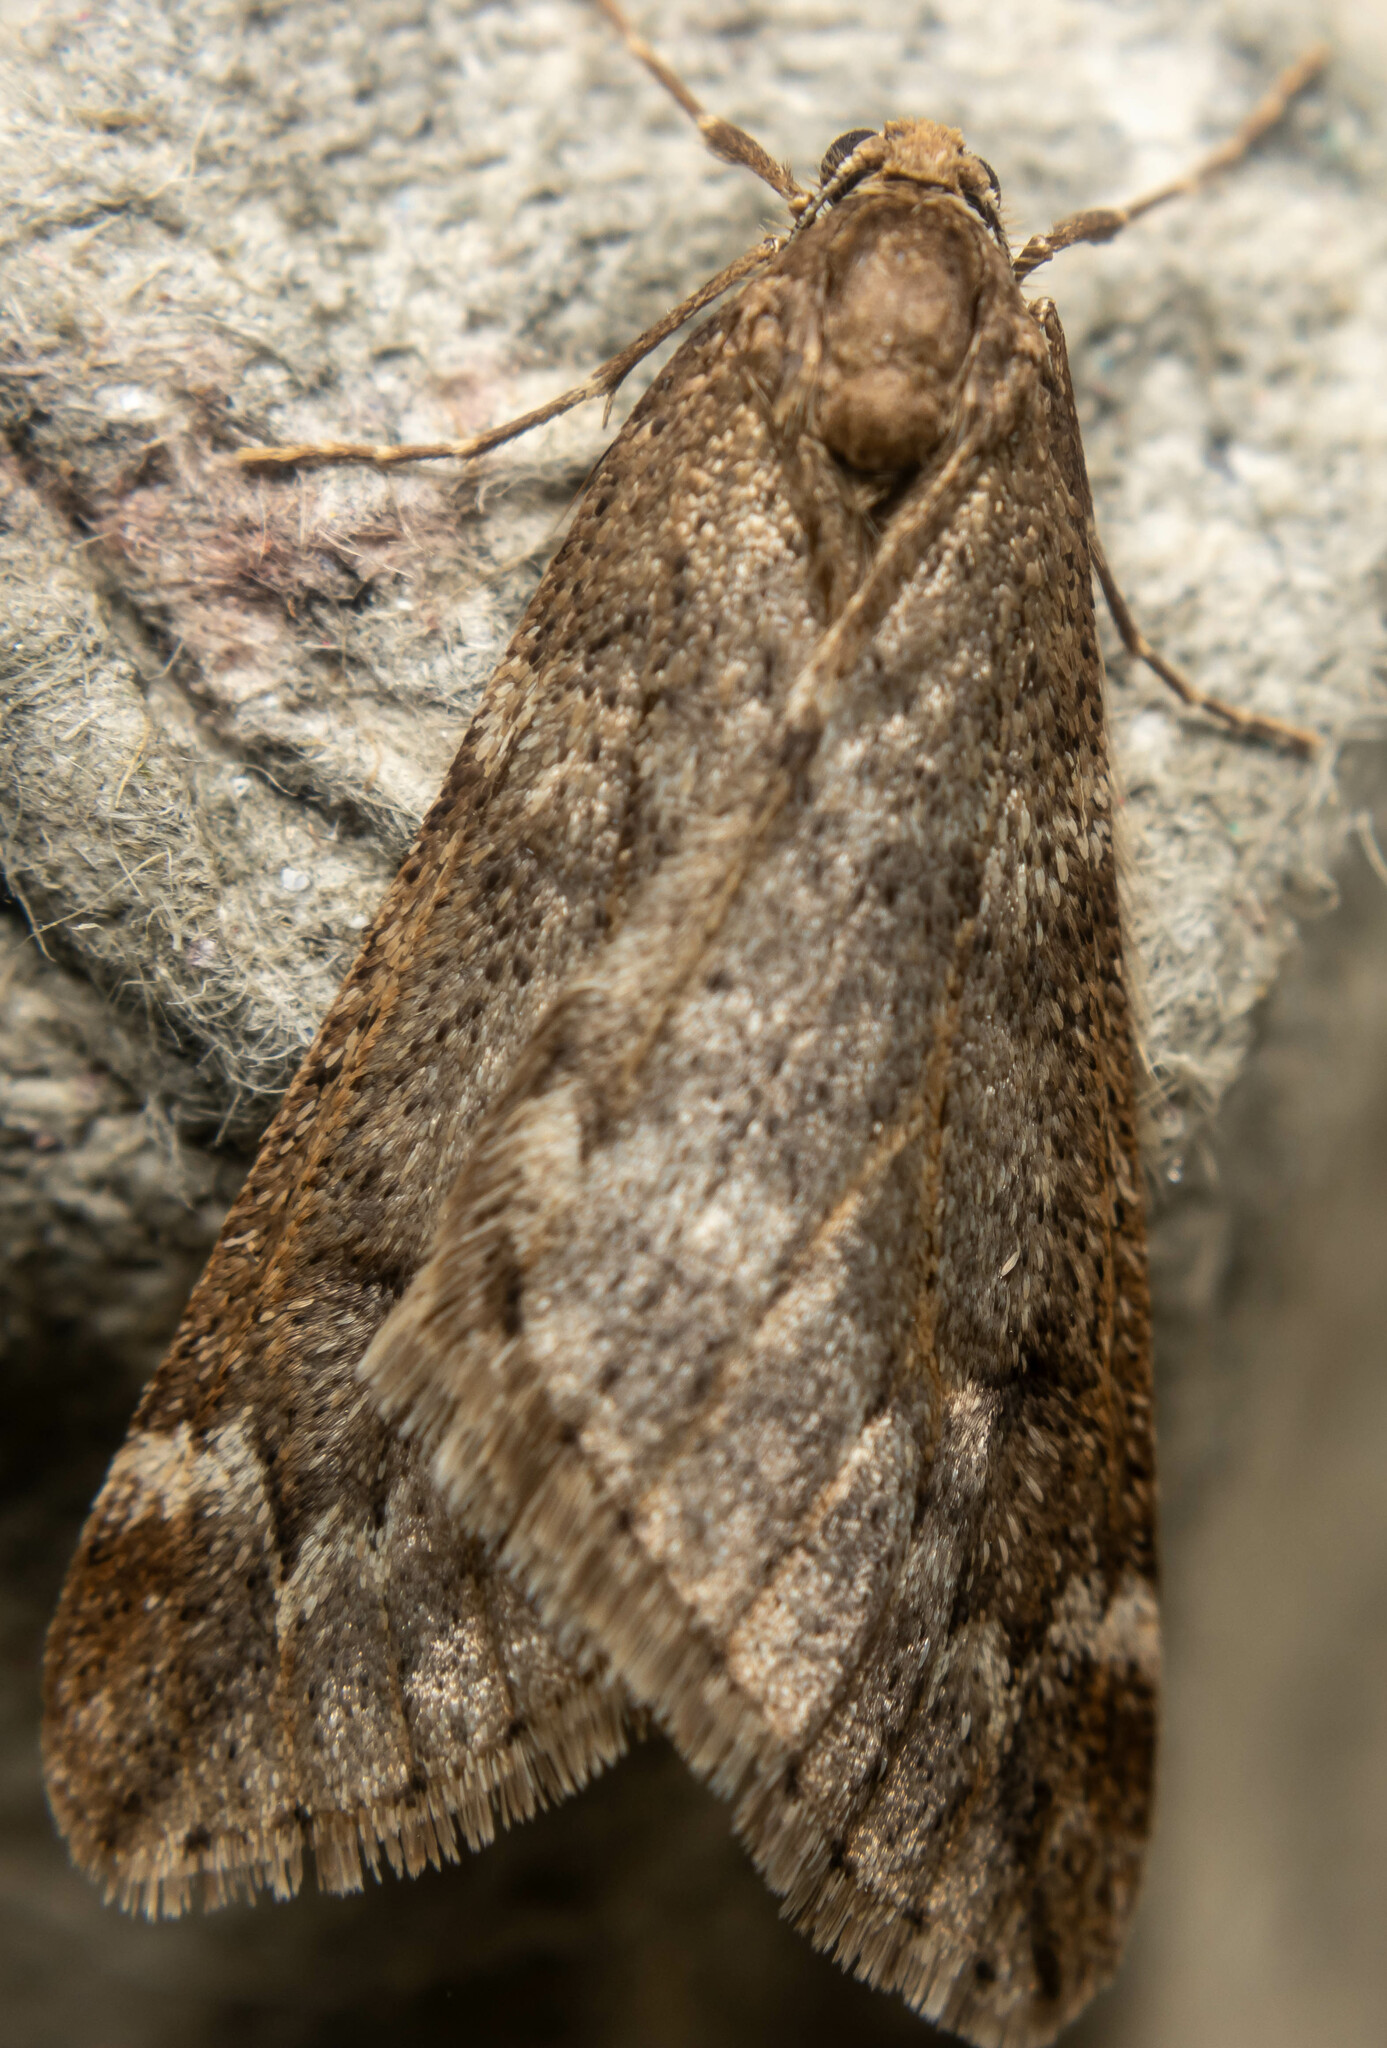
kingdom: Animalia
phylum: Arthropoda
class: Insecta
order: Lepidoptera
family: Geometridae
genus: Alsophila
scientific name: Alsophila aescularia
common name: March moth
